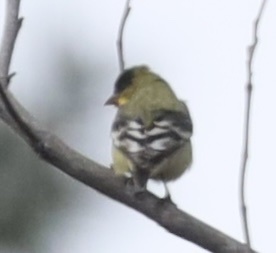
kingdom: Animalia
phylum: Chordata
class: Aves
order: Passeriformes
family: Fringillidae
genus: Spinus
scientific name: Spinus psaltria
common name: Lesser goldfinch
